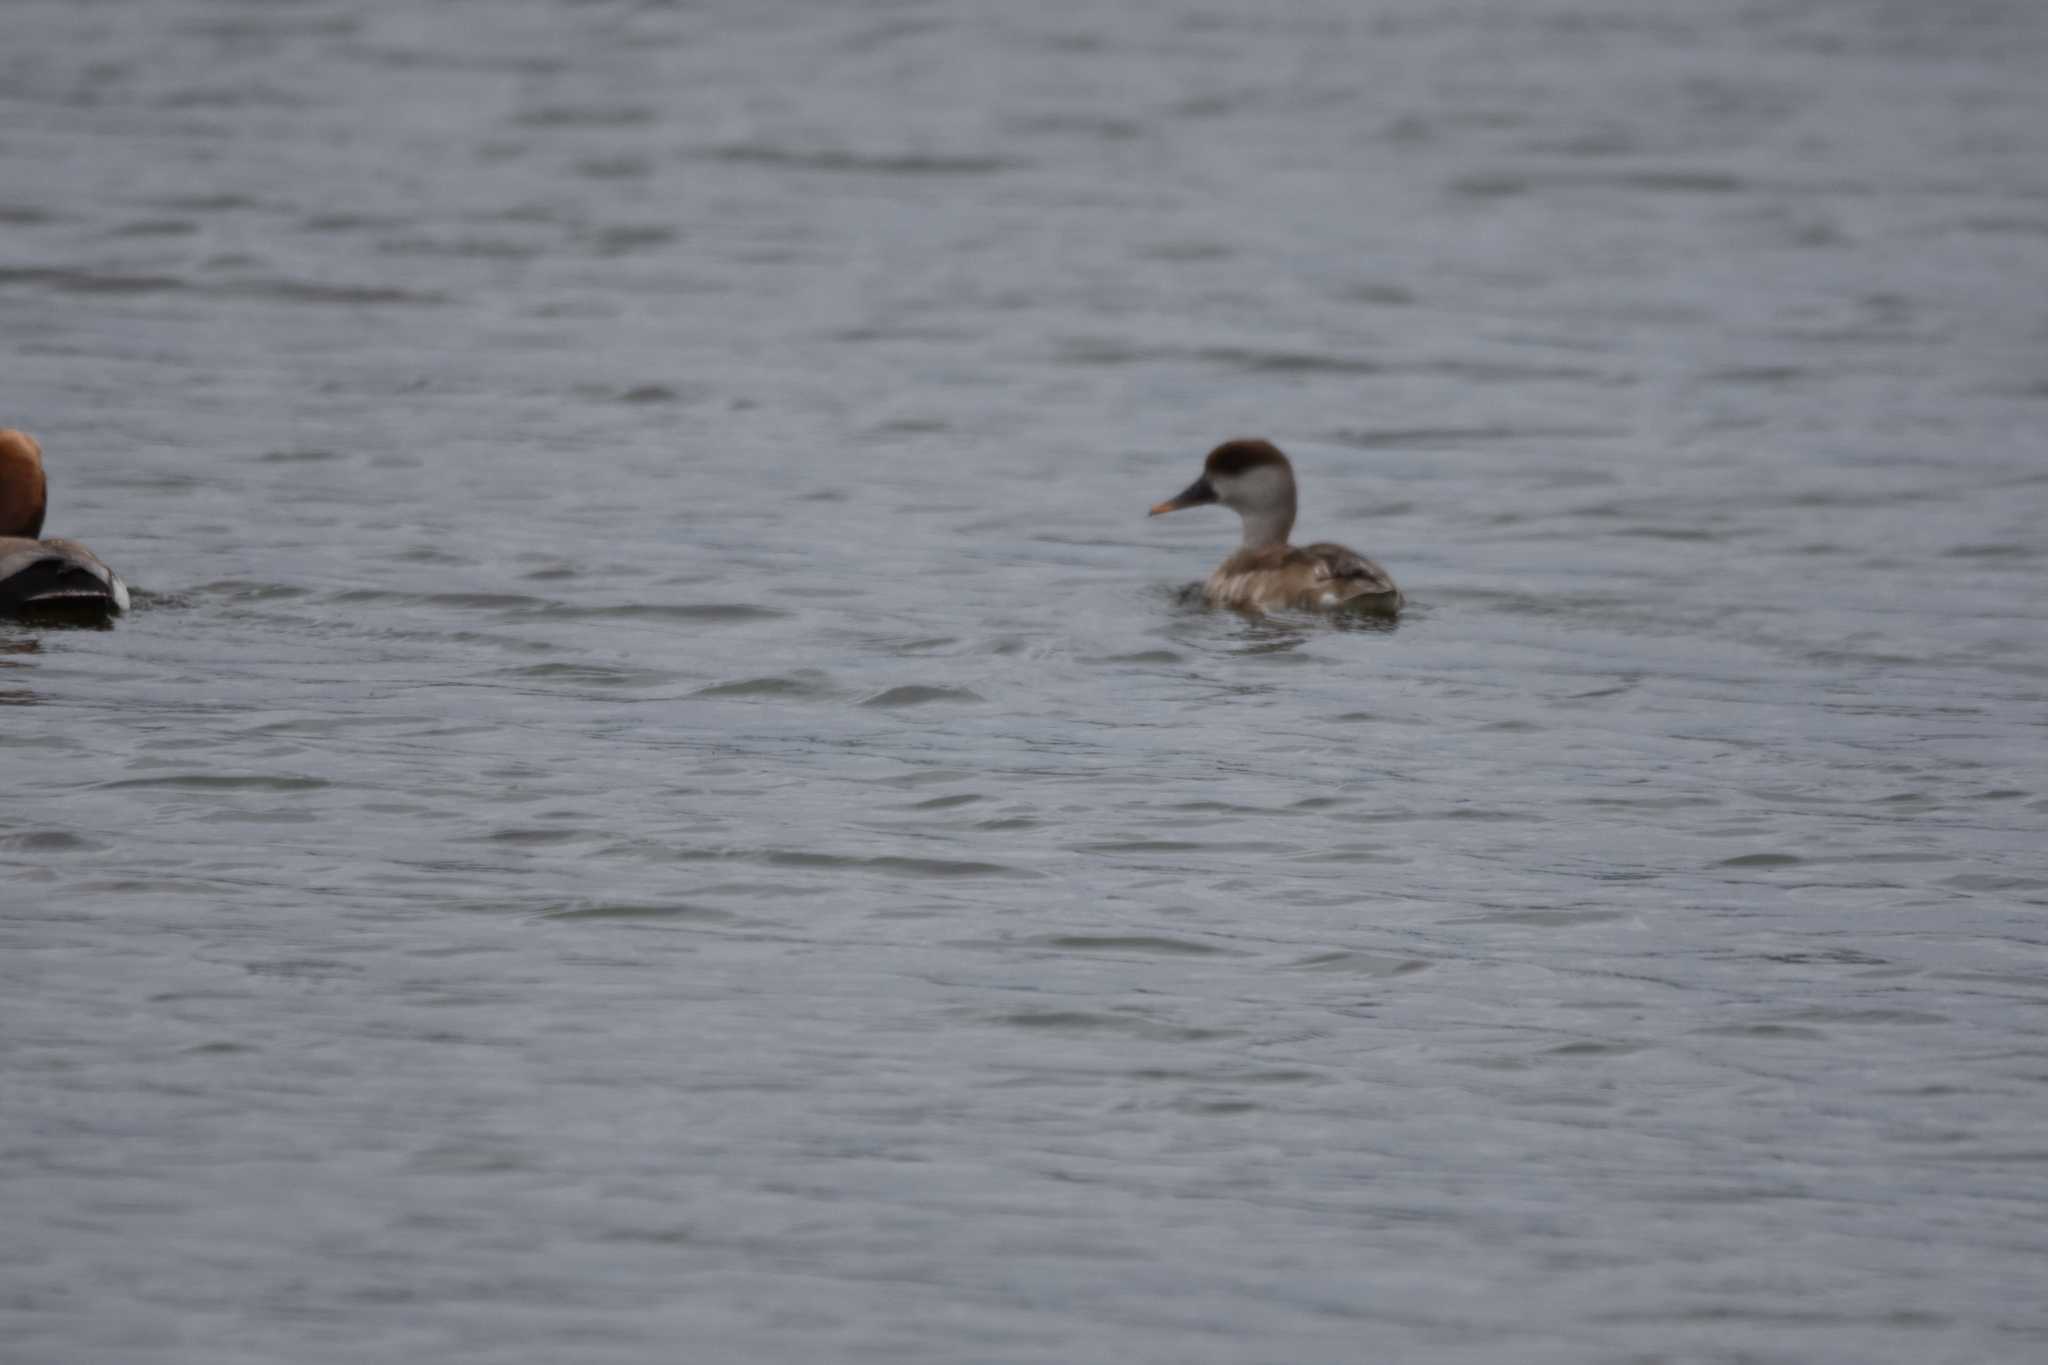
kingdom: Animalia
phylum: Chordata
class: Aves
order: Anseriformes
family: Anatidae
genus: Netta
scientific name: Netta rufina
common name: Red-crested pochard
